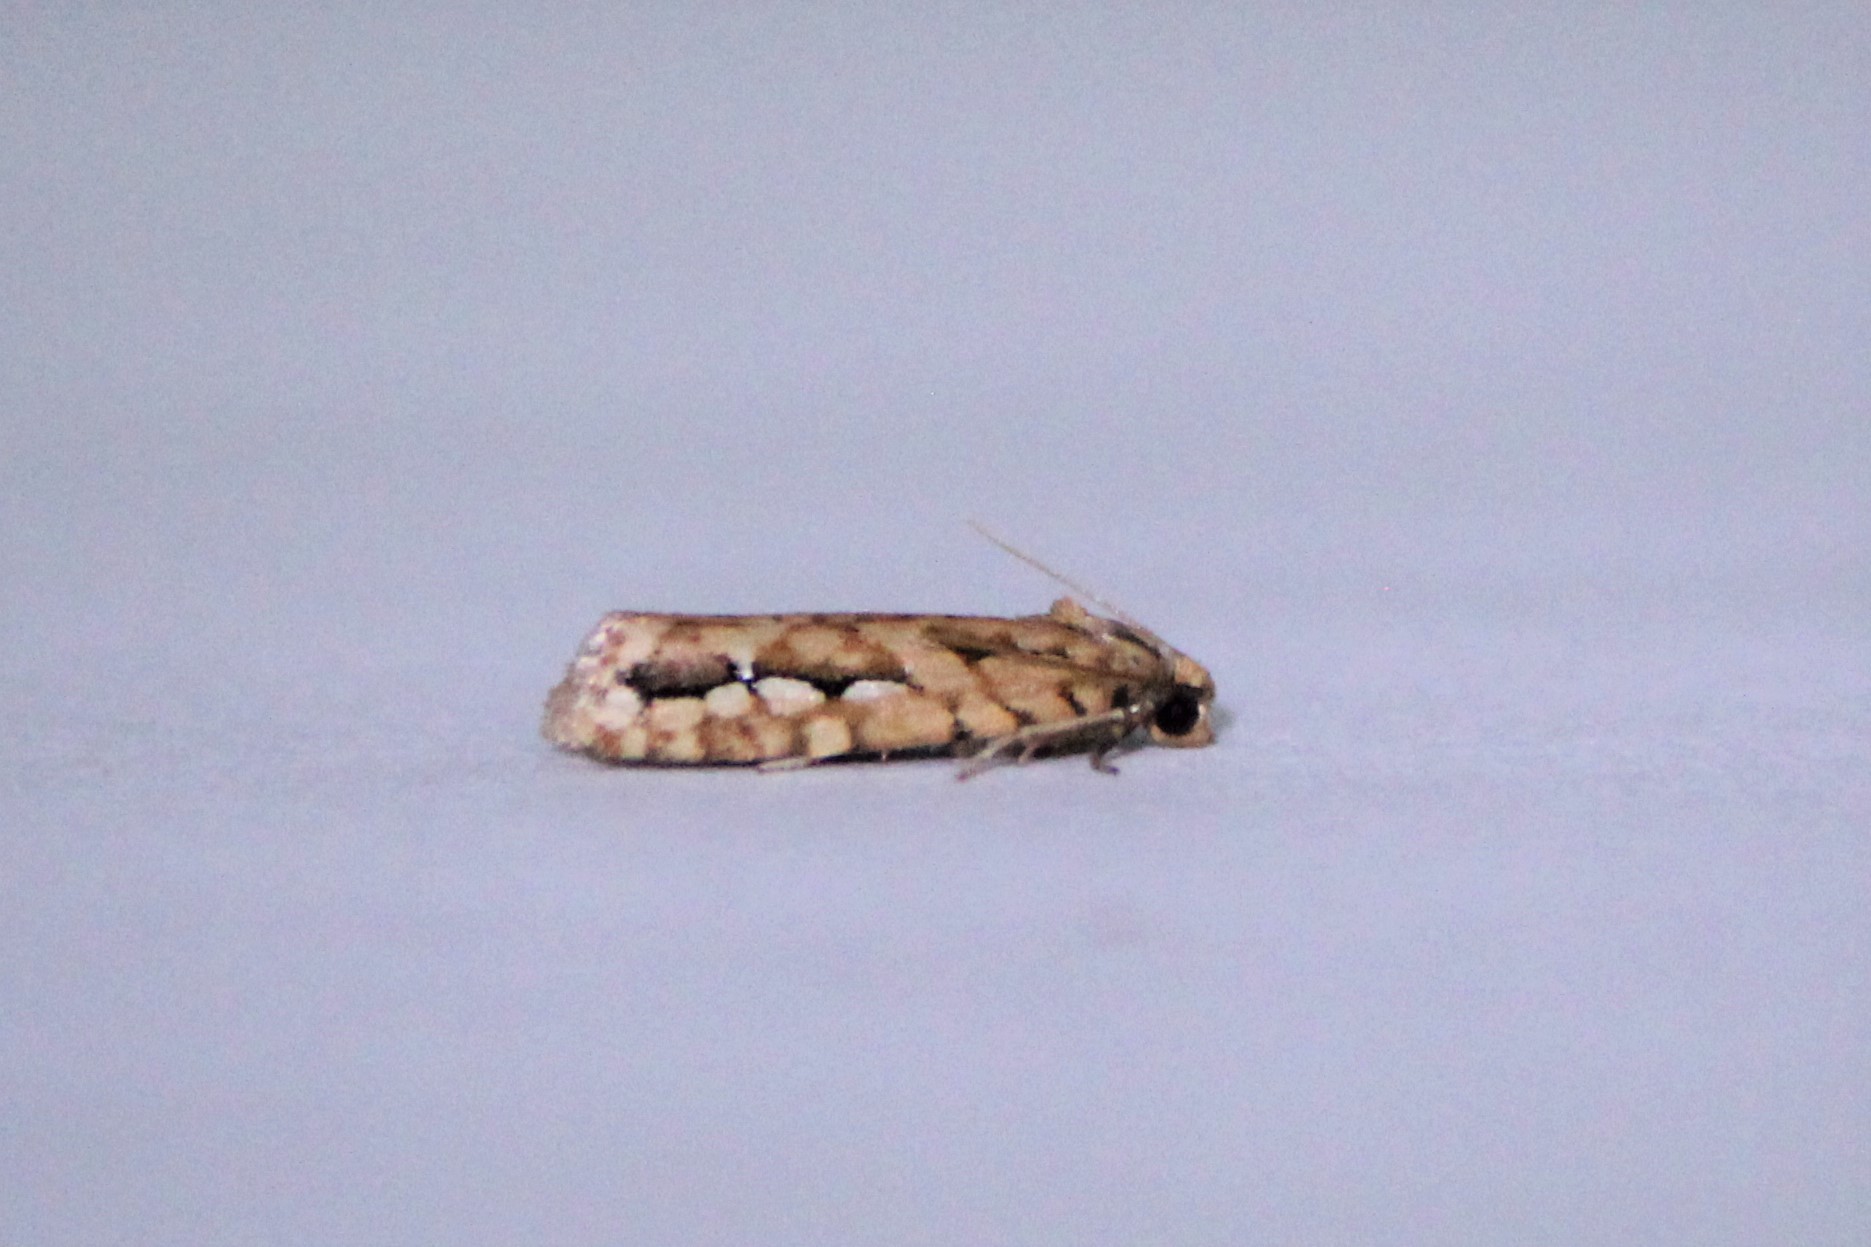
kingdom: Animalia
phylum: Arthropoda
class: Insecta
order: Lepidoptera
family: Tortricidae
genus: Diedra
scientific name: Diedra cockerellana
